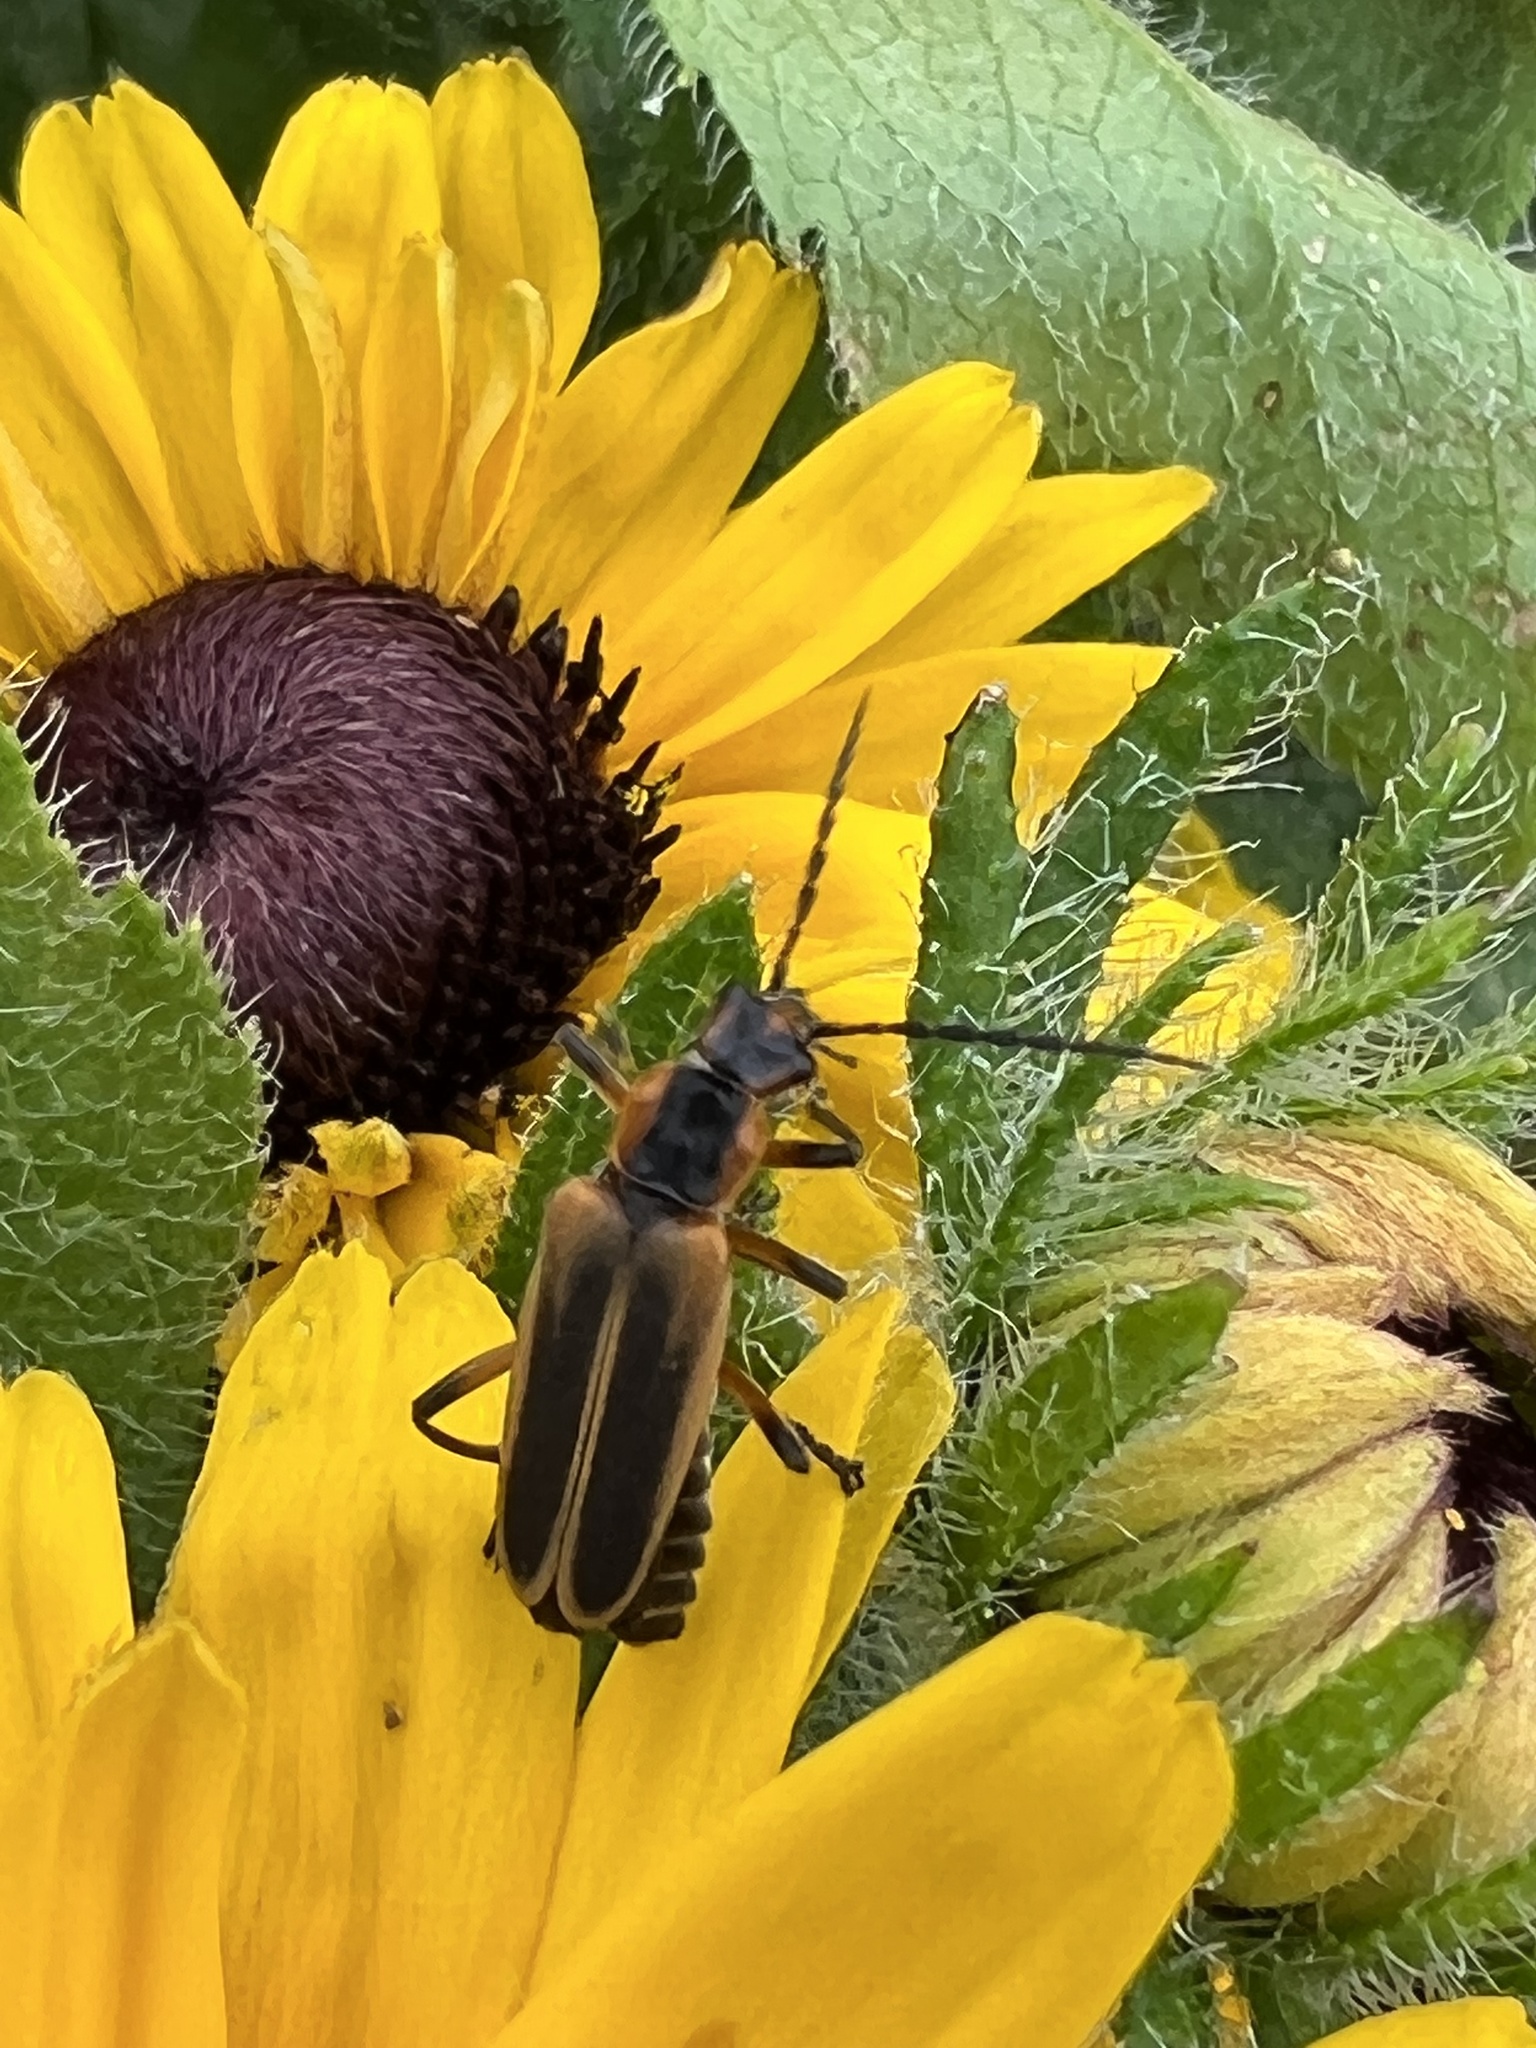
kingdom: Animalia
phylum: Arthropoda
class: Insecta
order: Coleoptera
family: Cantharidae
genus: Chauliognathus
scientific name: Chauliognathus marginatus
